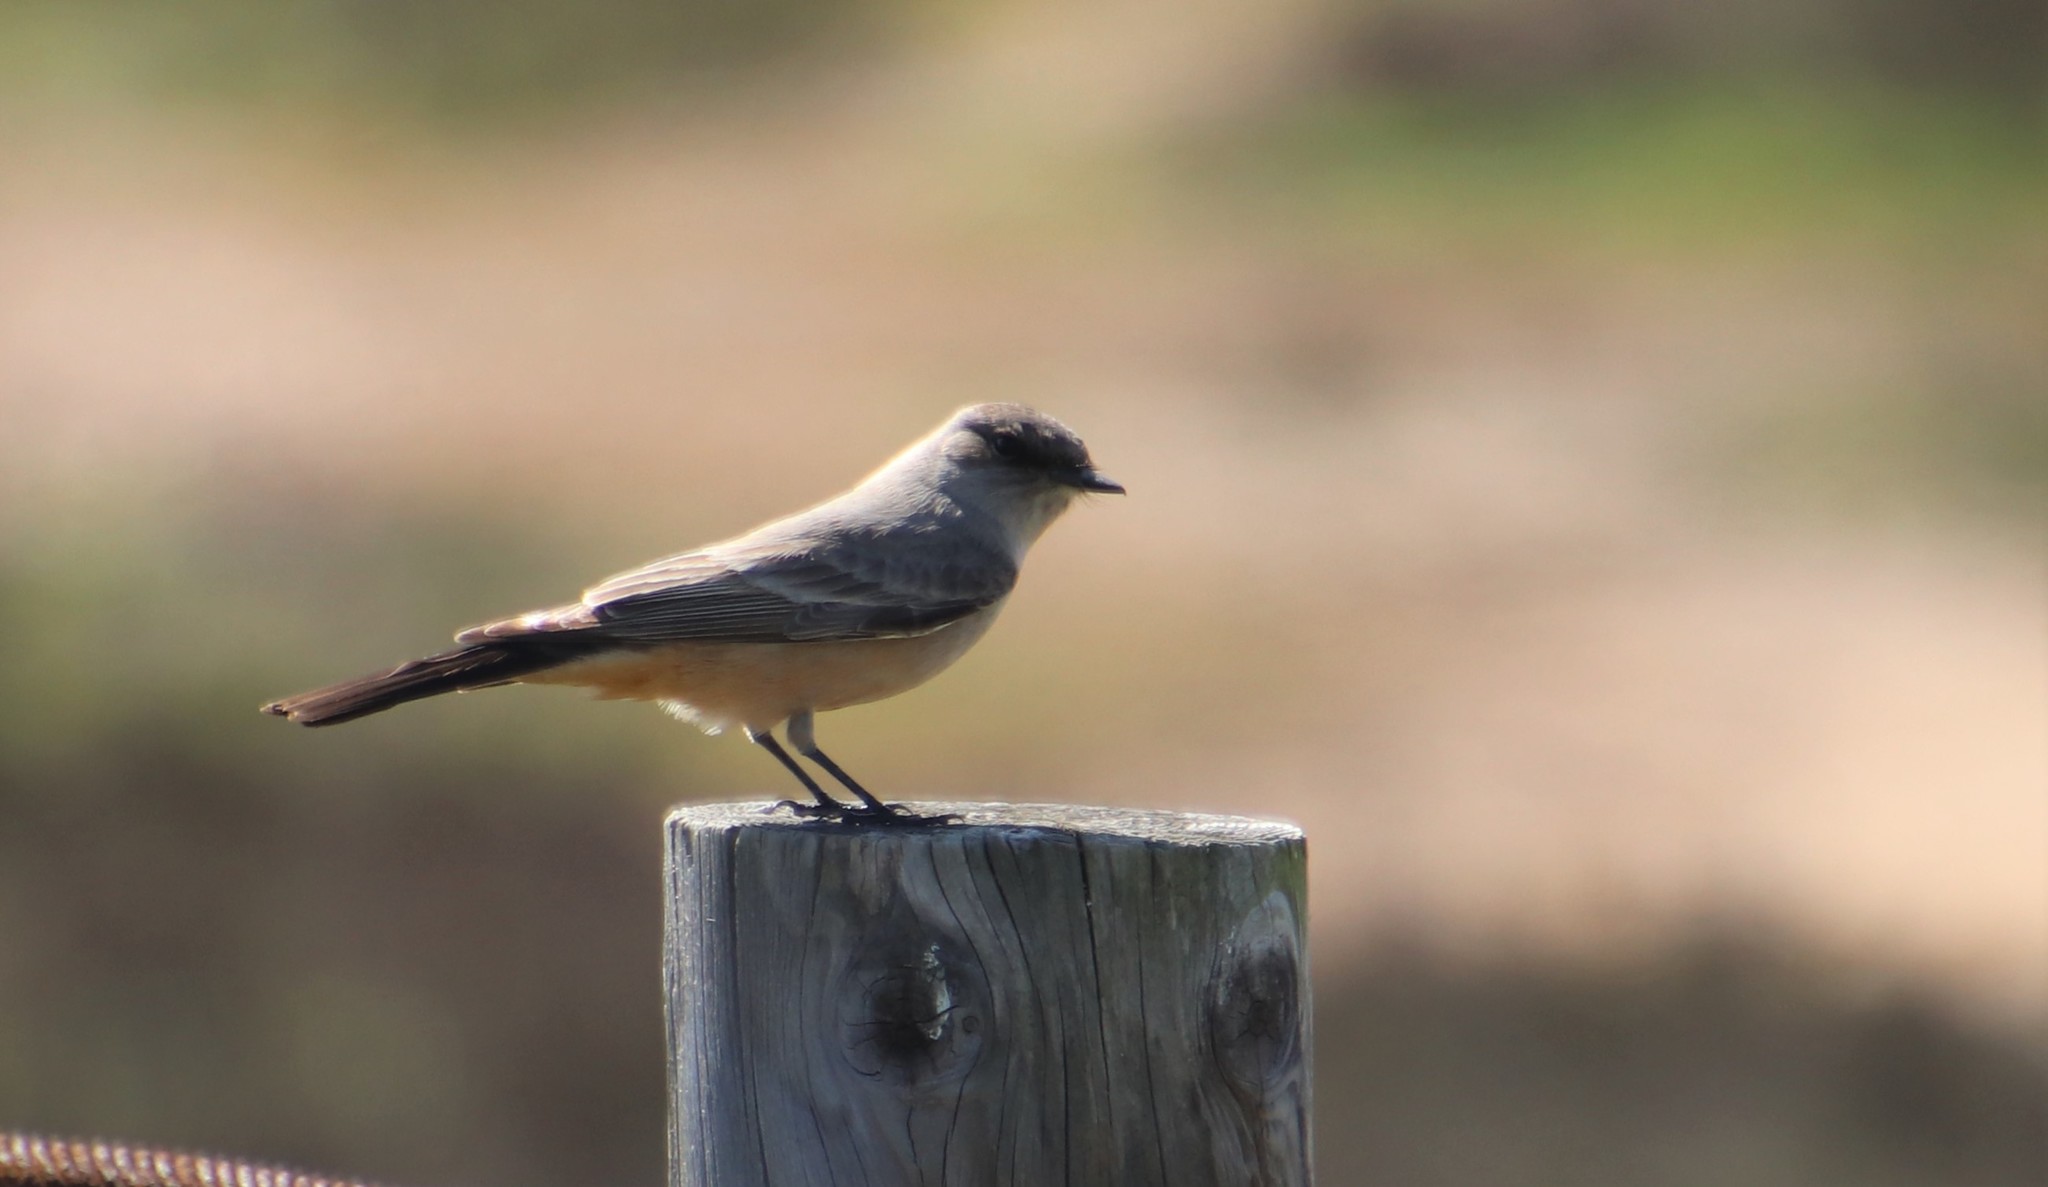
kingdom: Animalia
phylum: Chordata
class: Aves
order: Passeriformes
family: Tyrannidae
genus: Sayornis
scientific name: Sayornis saya
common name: Say's phoebe
